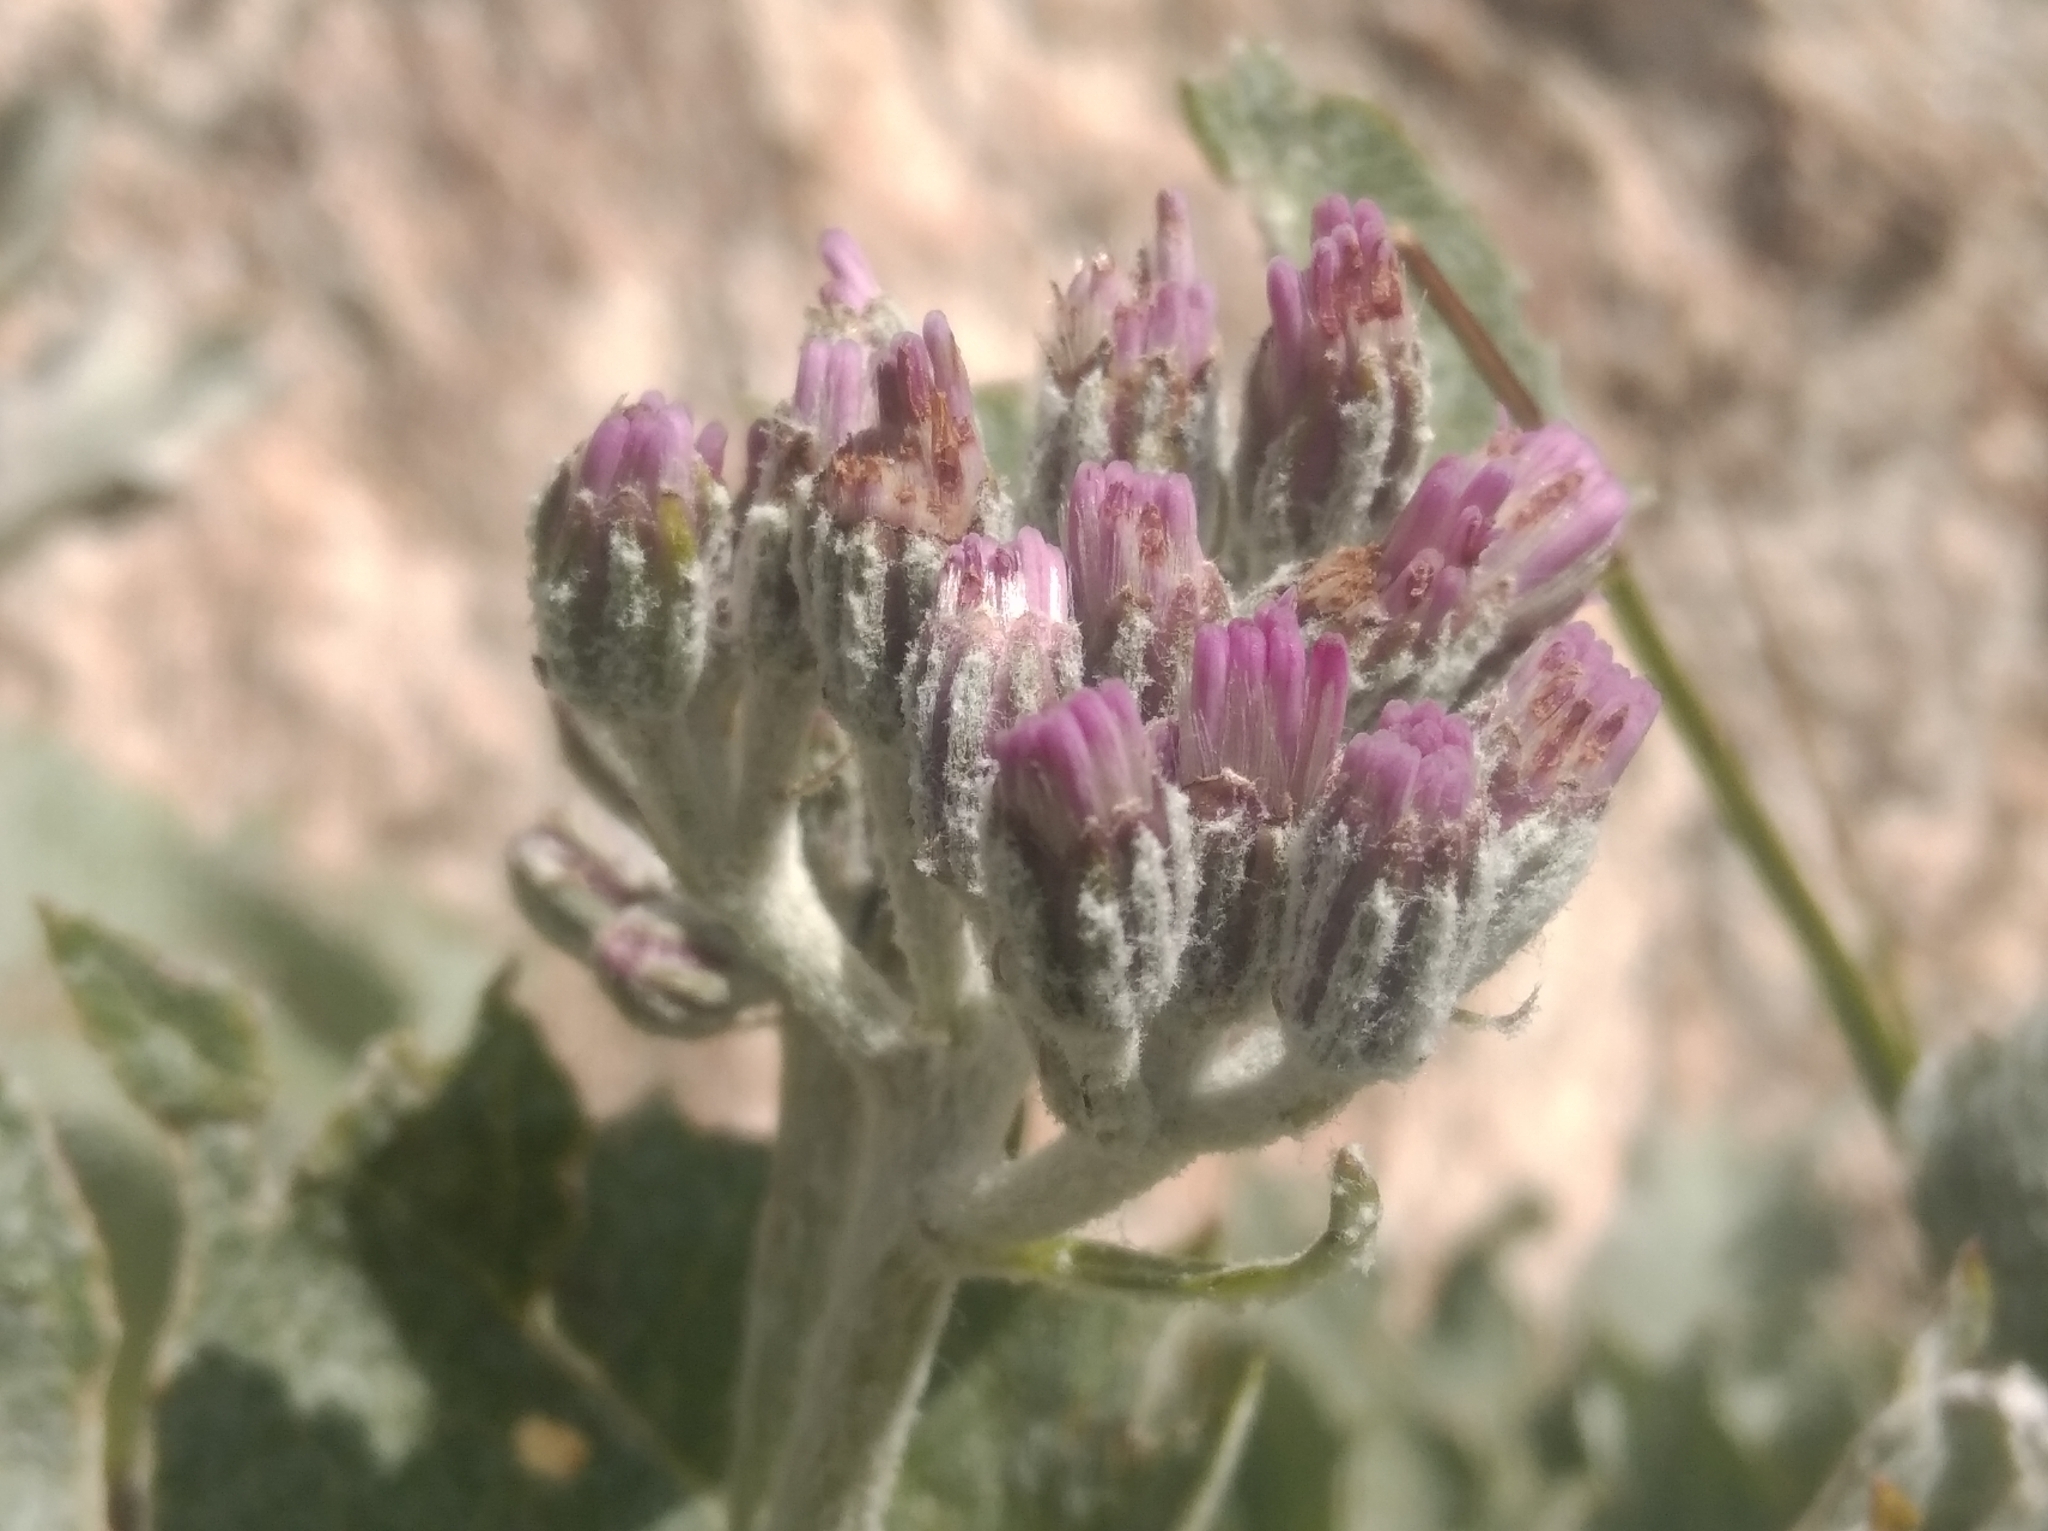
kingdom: Plantae
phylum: Tracheophyta
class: Magnoliopsida
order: Asterales
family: Asteraceae
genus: Adenostyles
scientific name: Adenostyles leucophylla
